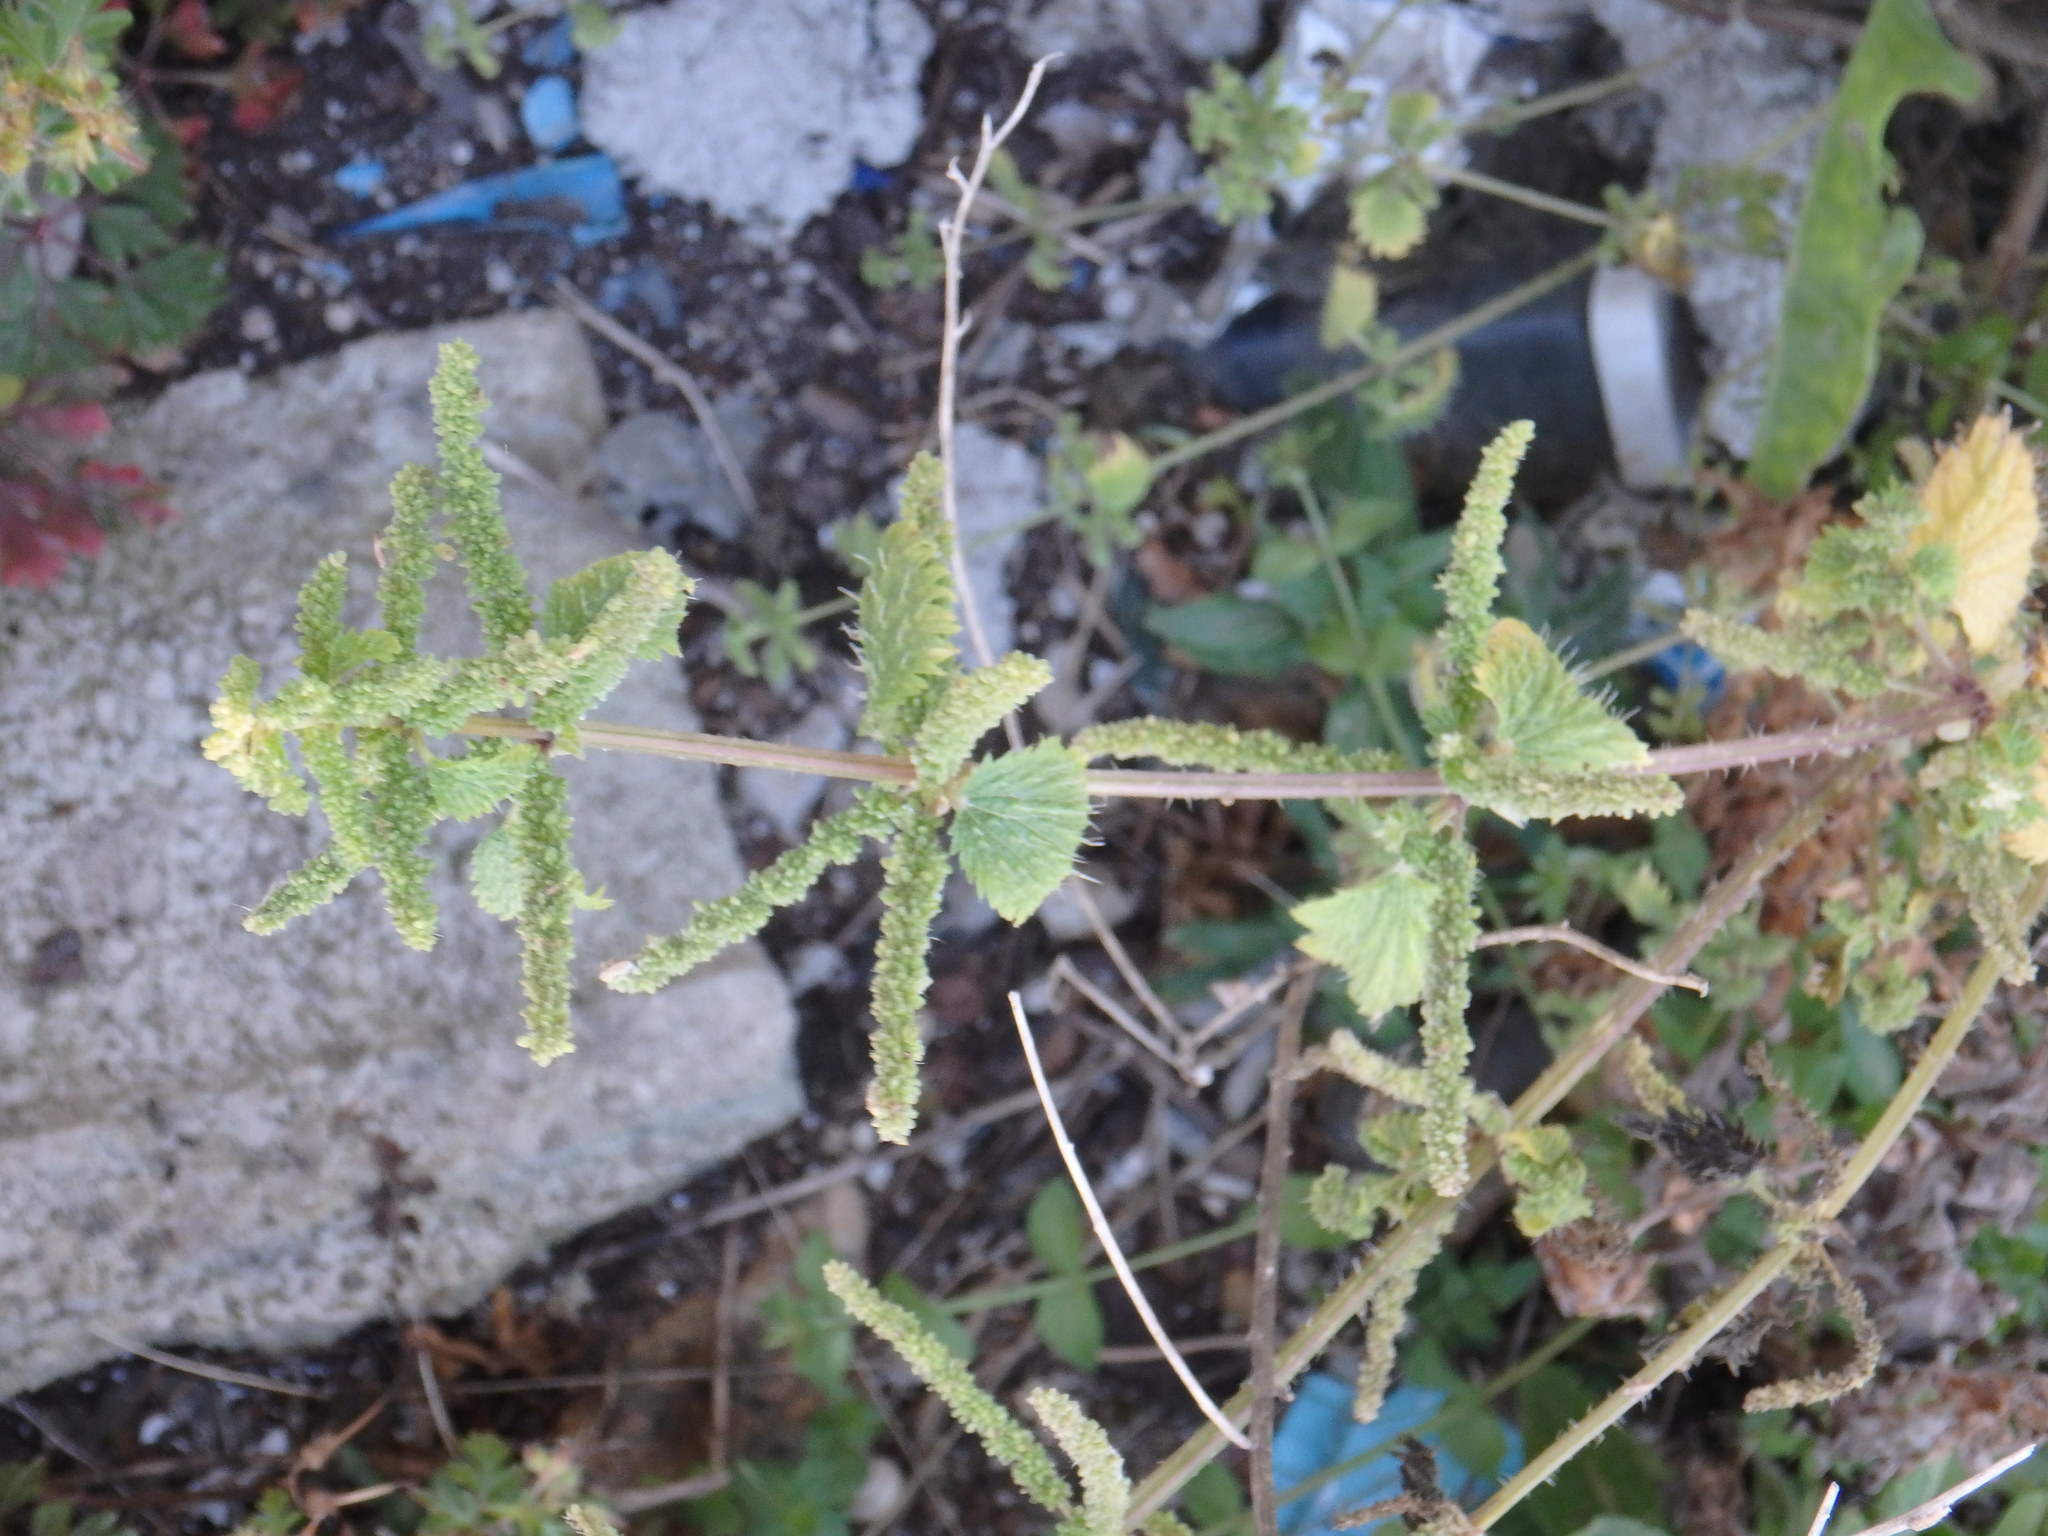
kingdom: Plantae
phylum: Tracheophyta
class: Magnoliopsida
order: Rosales
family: Urticaceae
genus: Urtica
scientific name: Urtica membranacea
